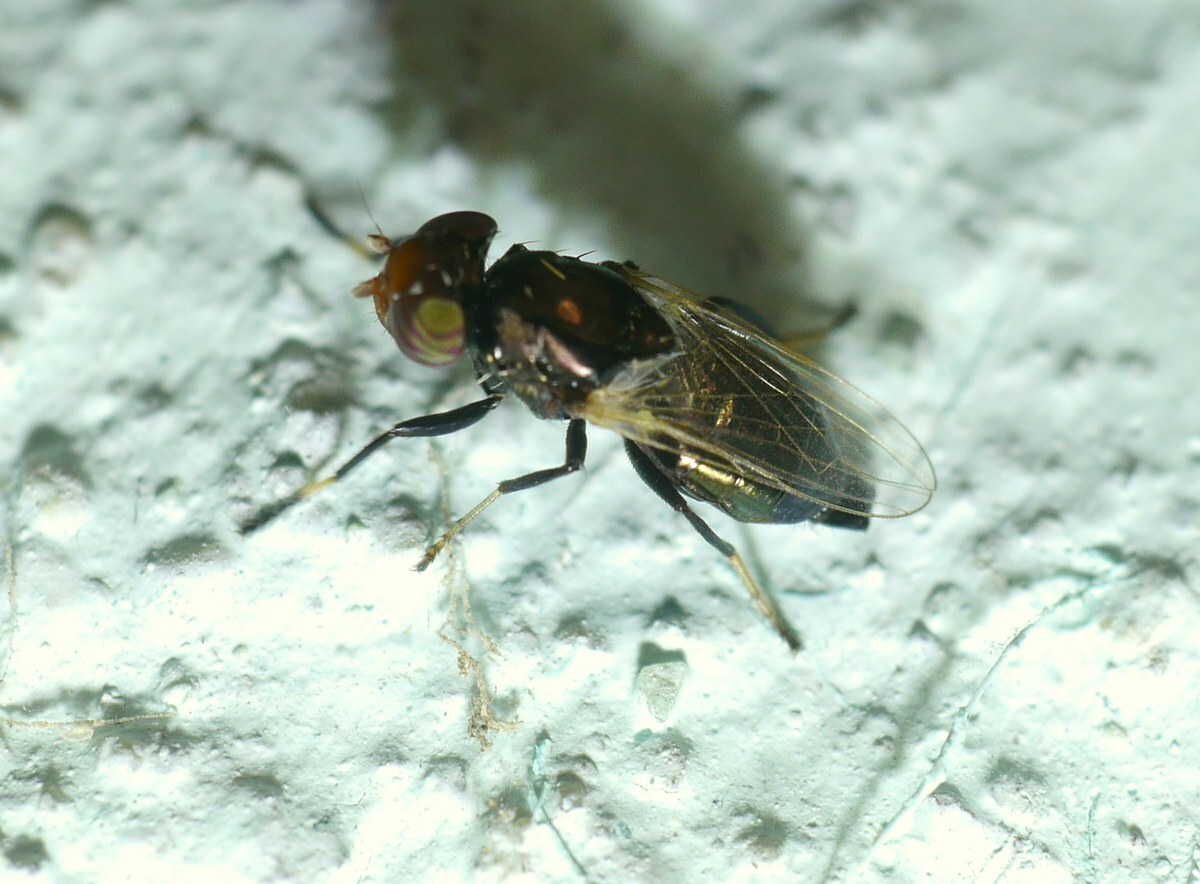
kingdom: Animalia
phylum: Arthropoda
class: Insecta
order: Diptera
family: Ulidiidae
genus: Physiphora
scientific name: Physiphora alceae
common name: Picture-winged fly
